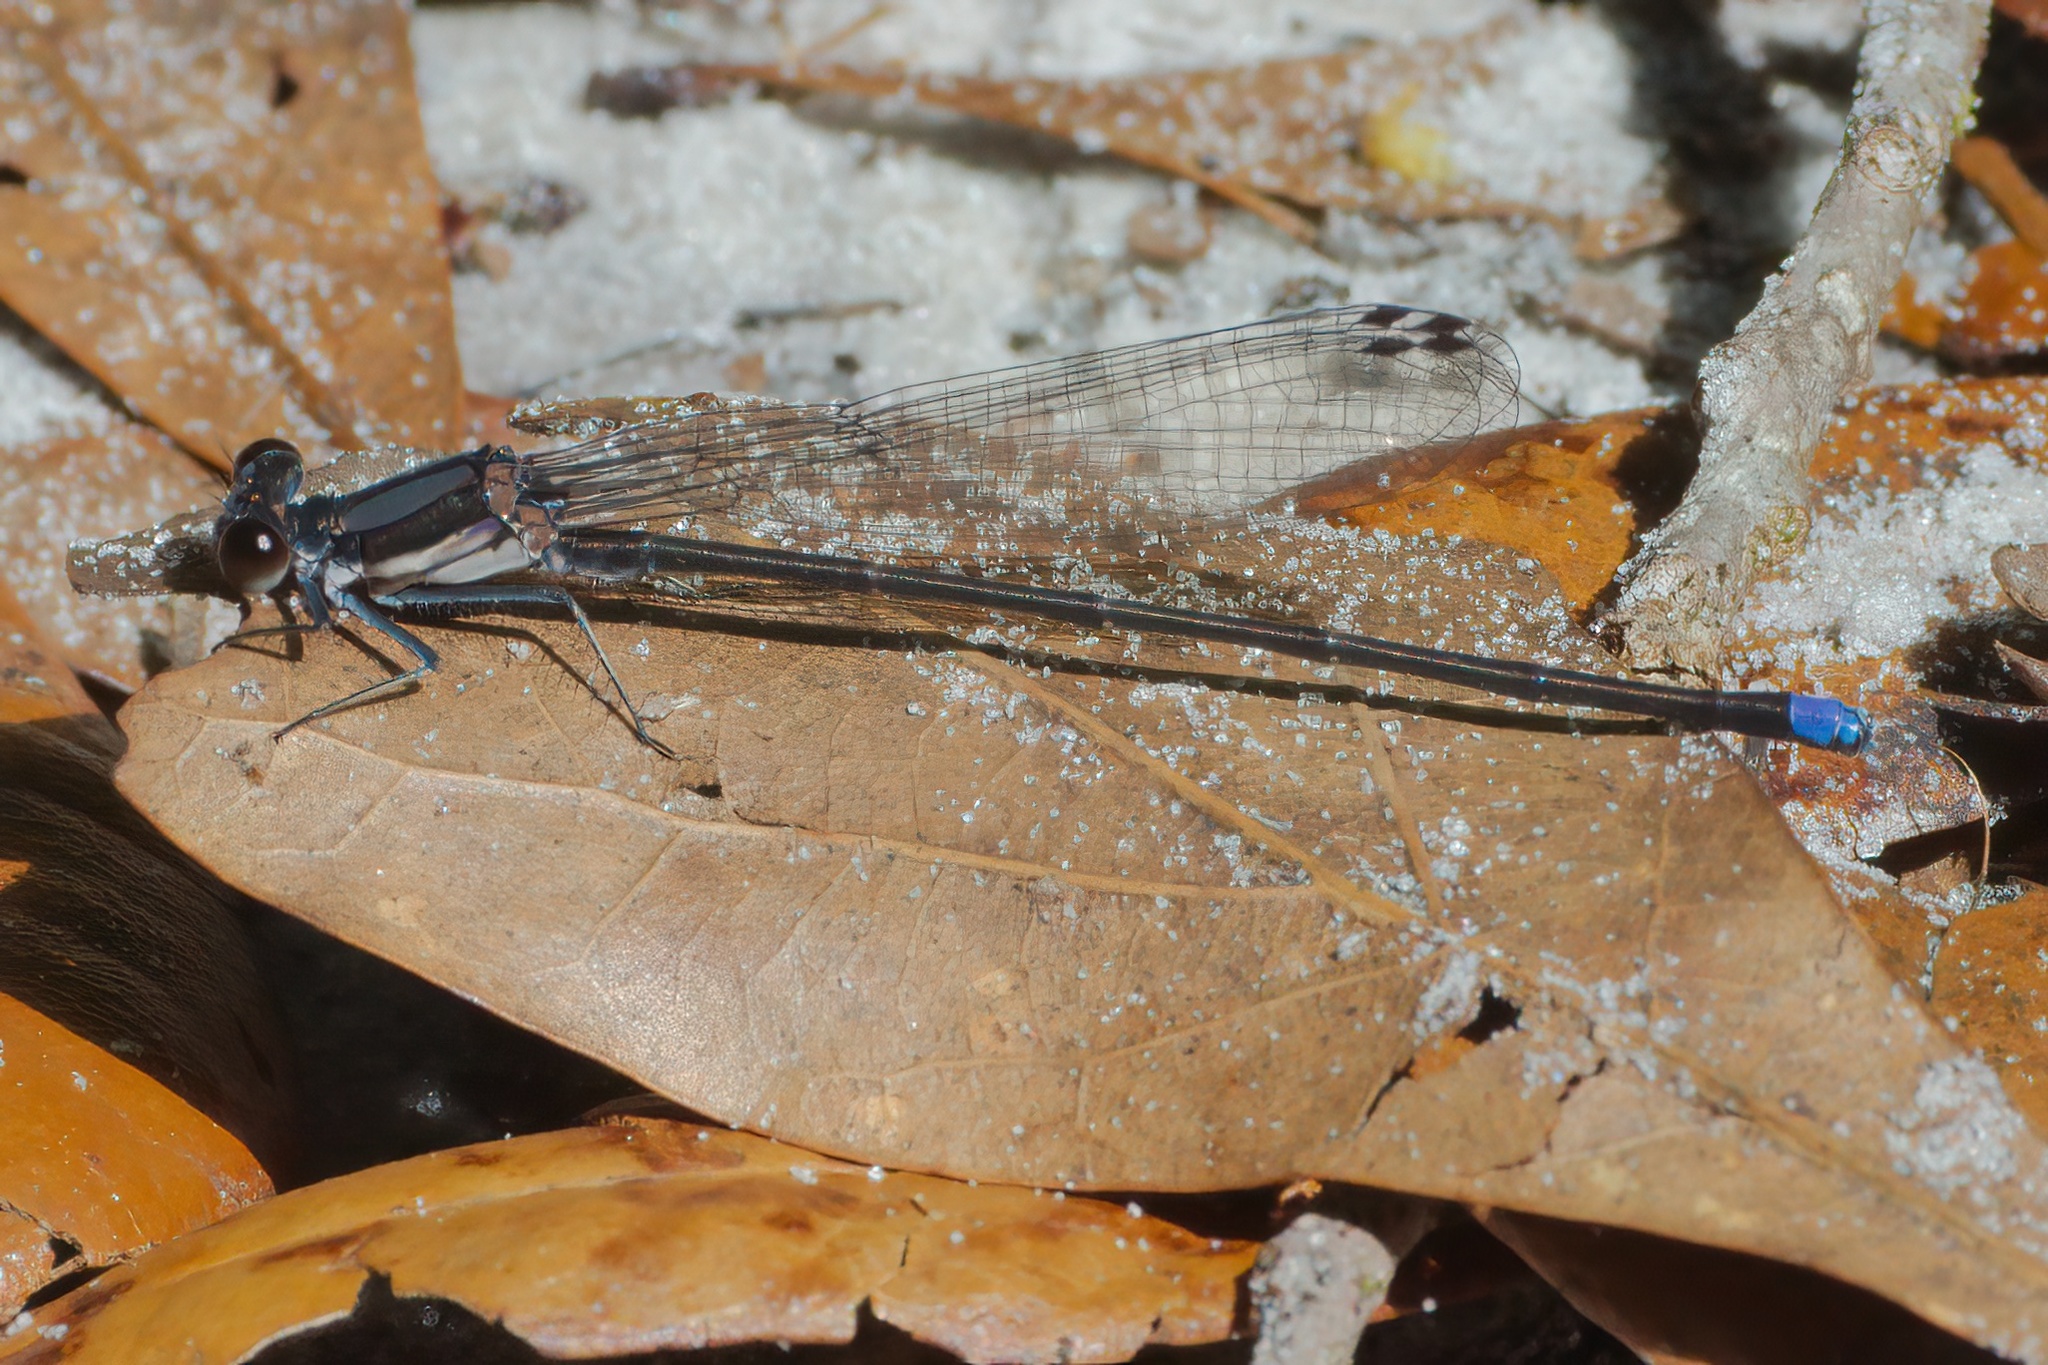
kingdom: Animalia
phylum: Arthropoda
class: Insecta
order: Odonata
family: Coenagrionidae
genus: Argia
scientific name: Argia tibialis
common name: Blue-tipped dancer
